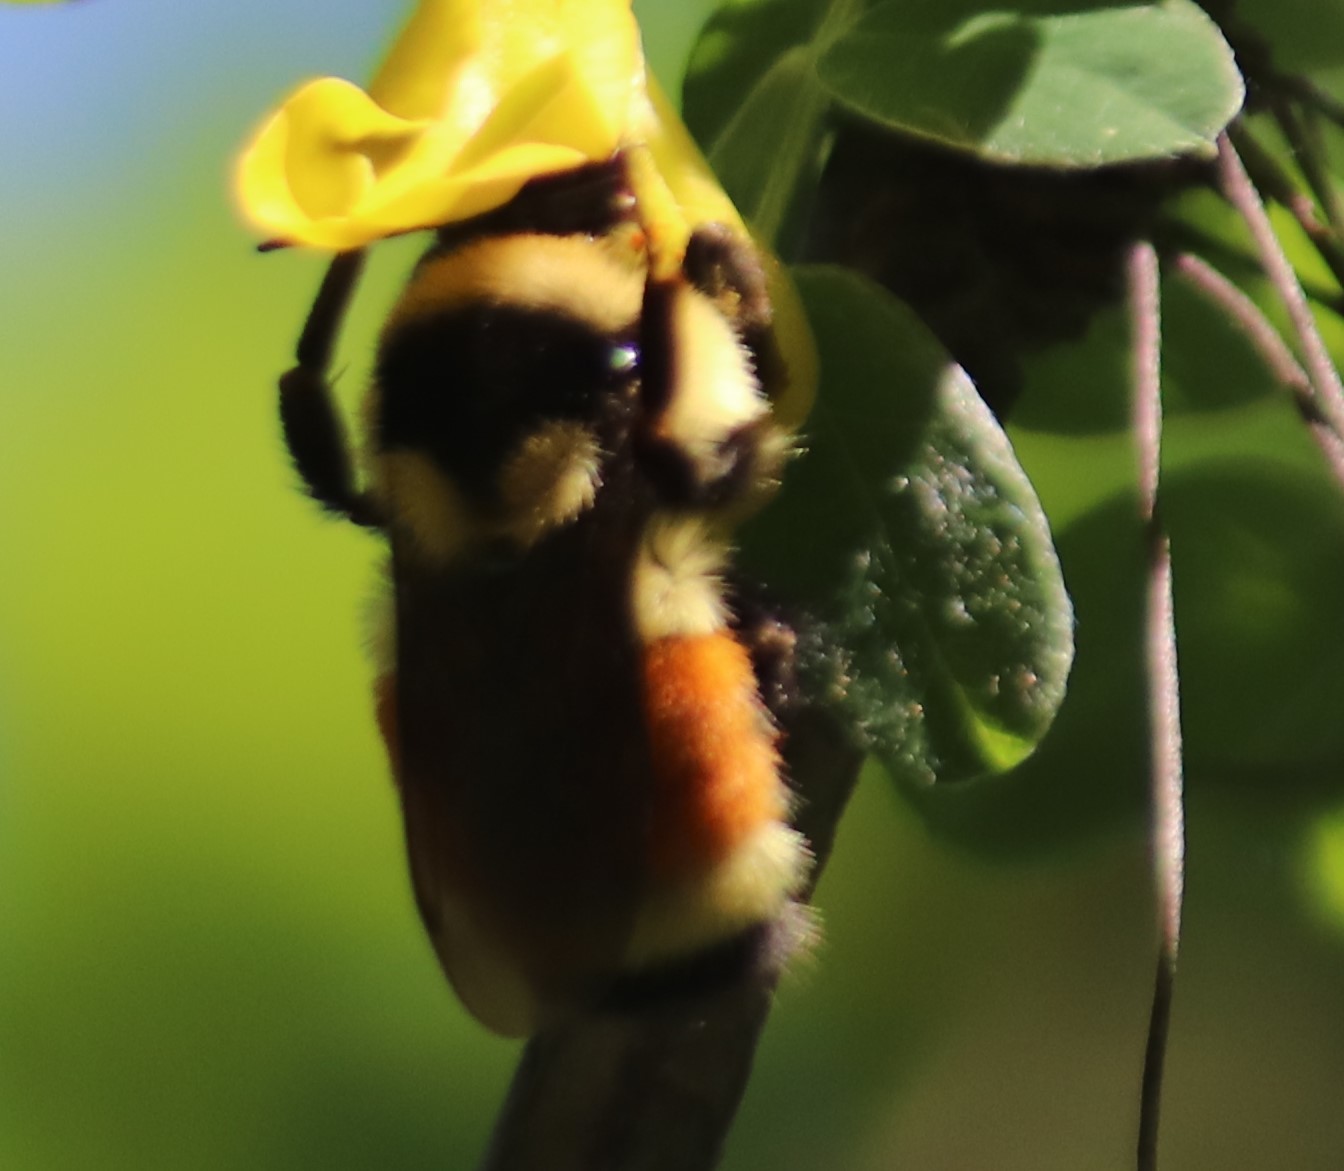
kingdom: Animalia
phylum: Arthropoda
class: Insecta
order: Hymenoptera
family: Apidae
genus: Bombus
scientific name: Bombus ternarius
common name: Tri-colored bumble bee
